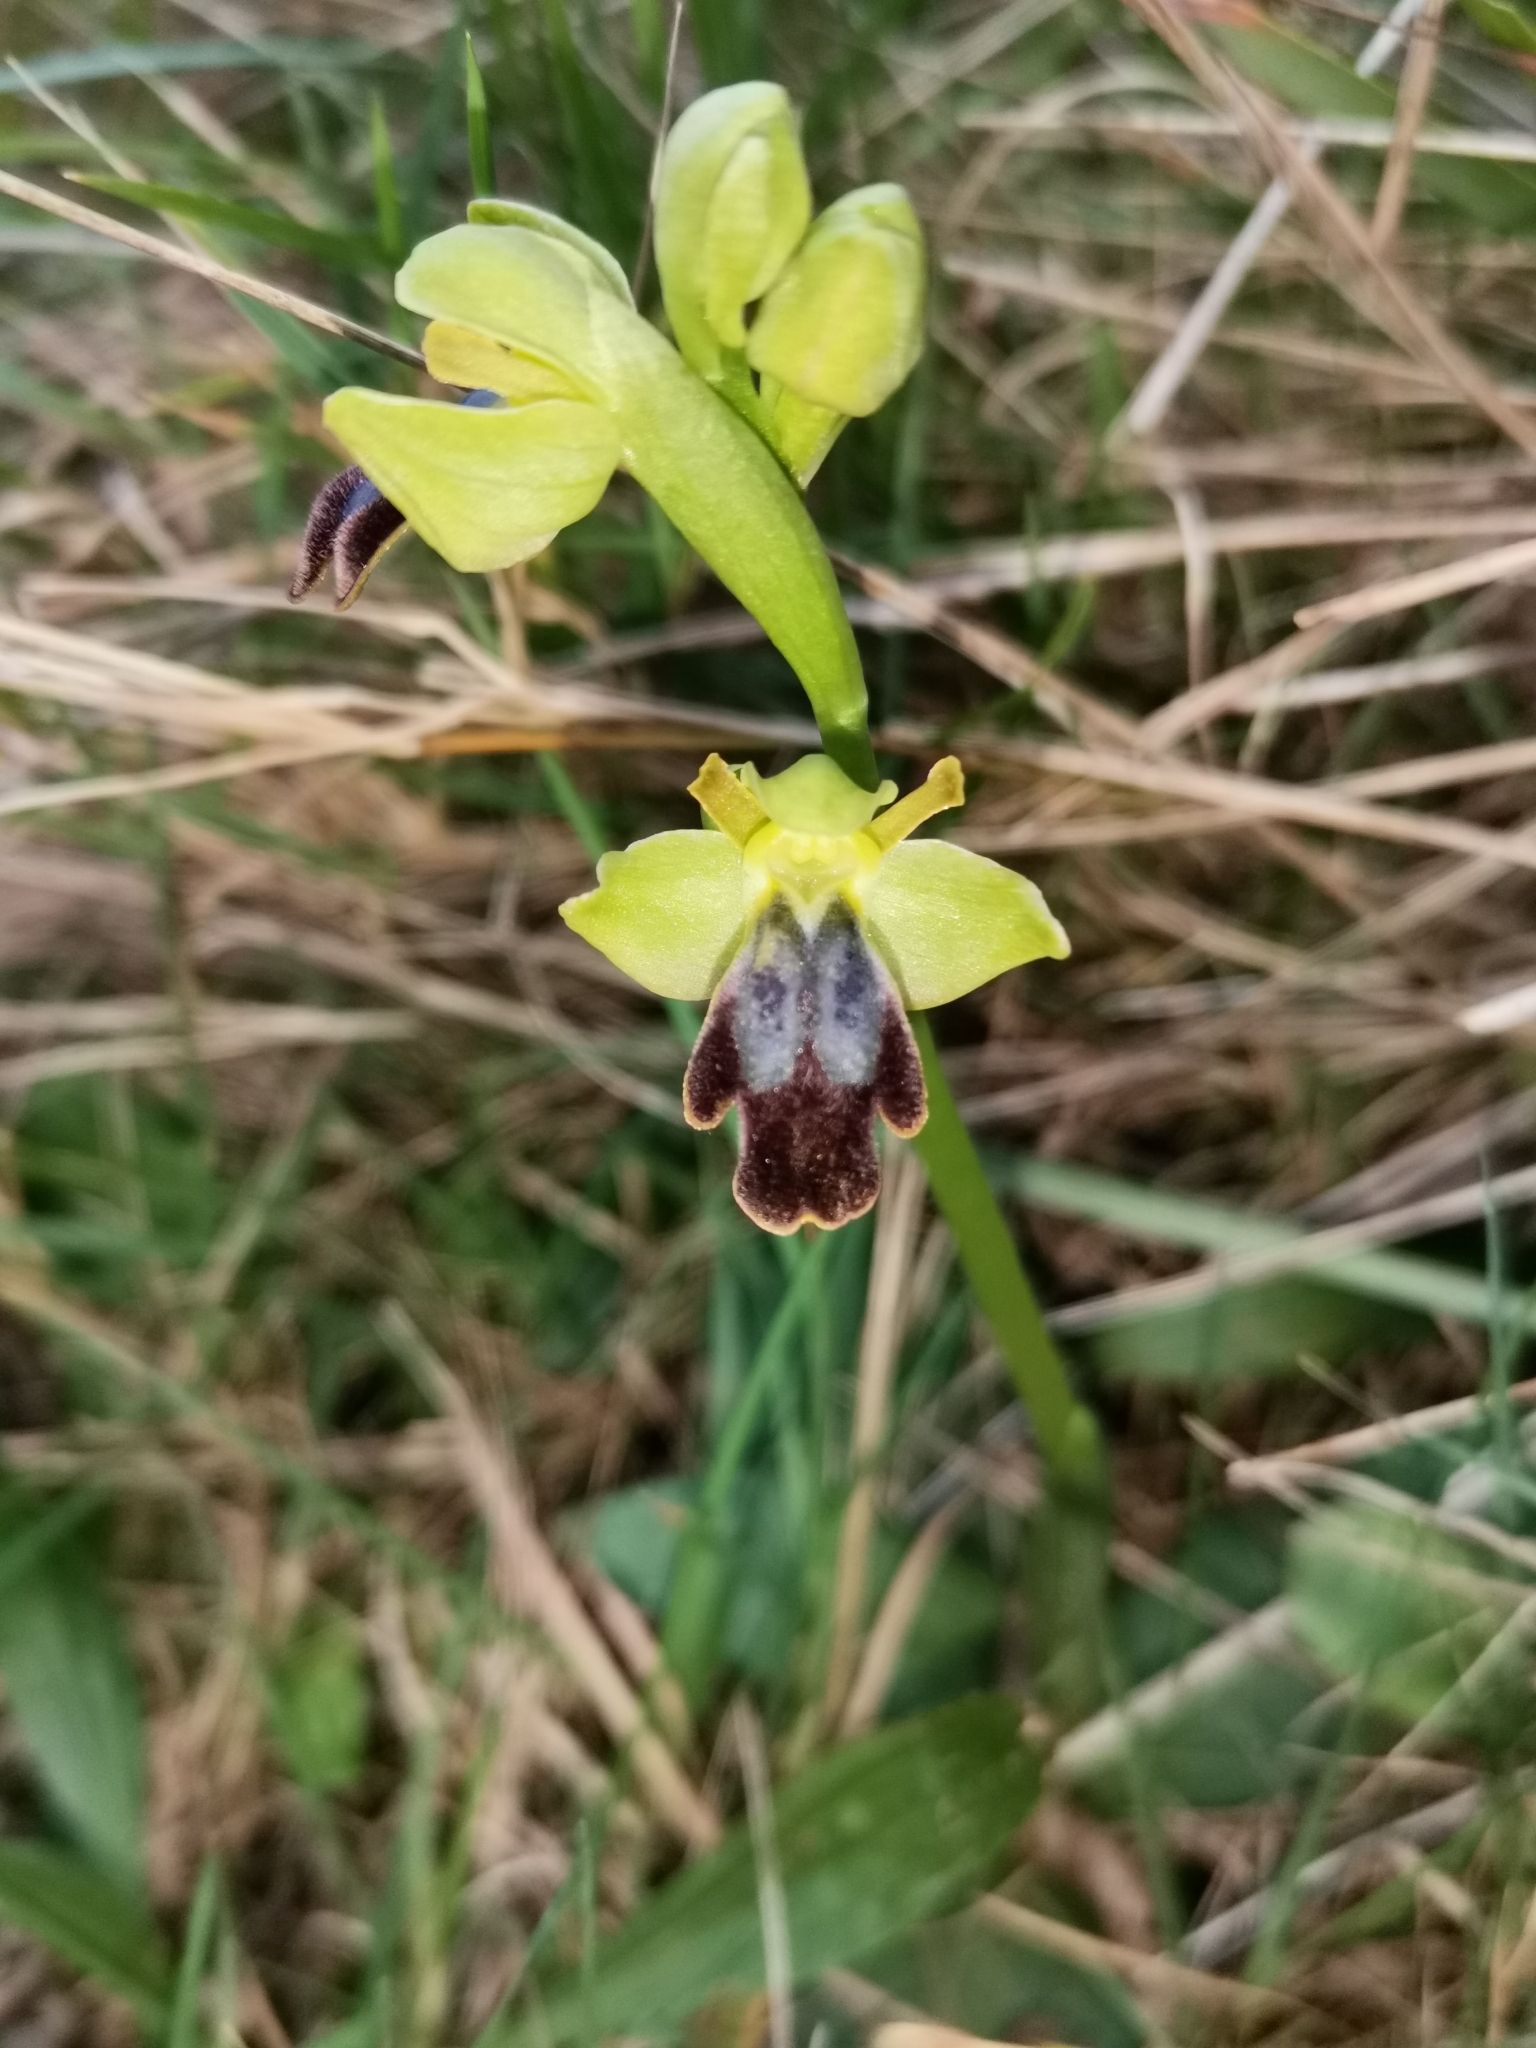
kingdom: Plantae
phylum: Tracheophyta
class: Liliopsida
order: Asparagales
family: Orchidaceae
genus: Ophrys
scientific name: Ophrys fusca
